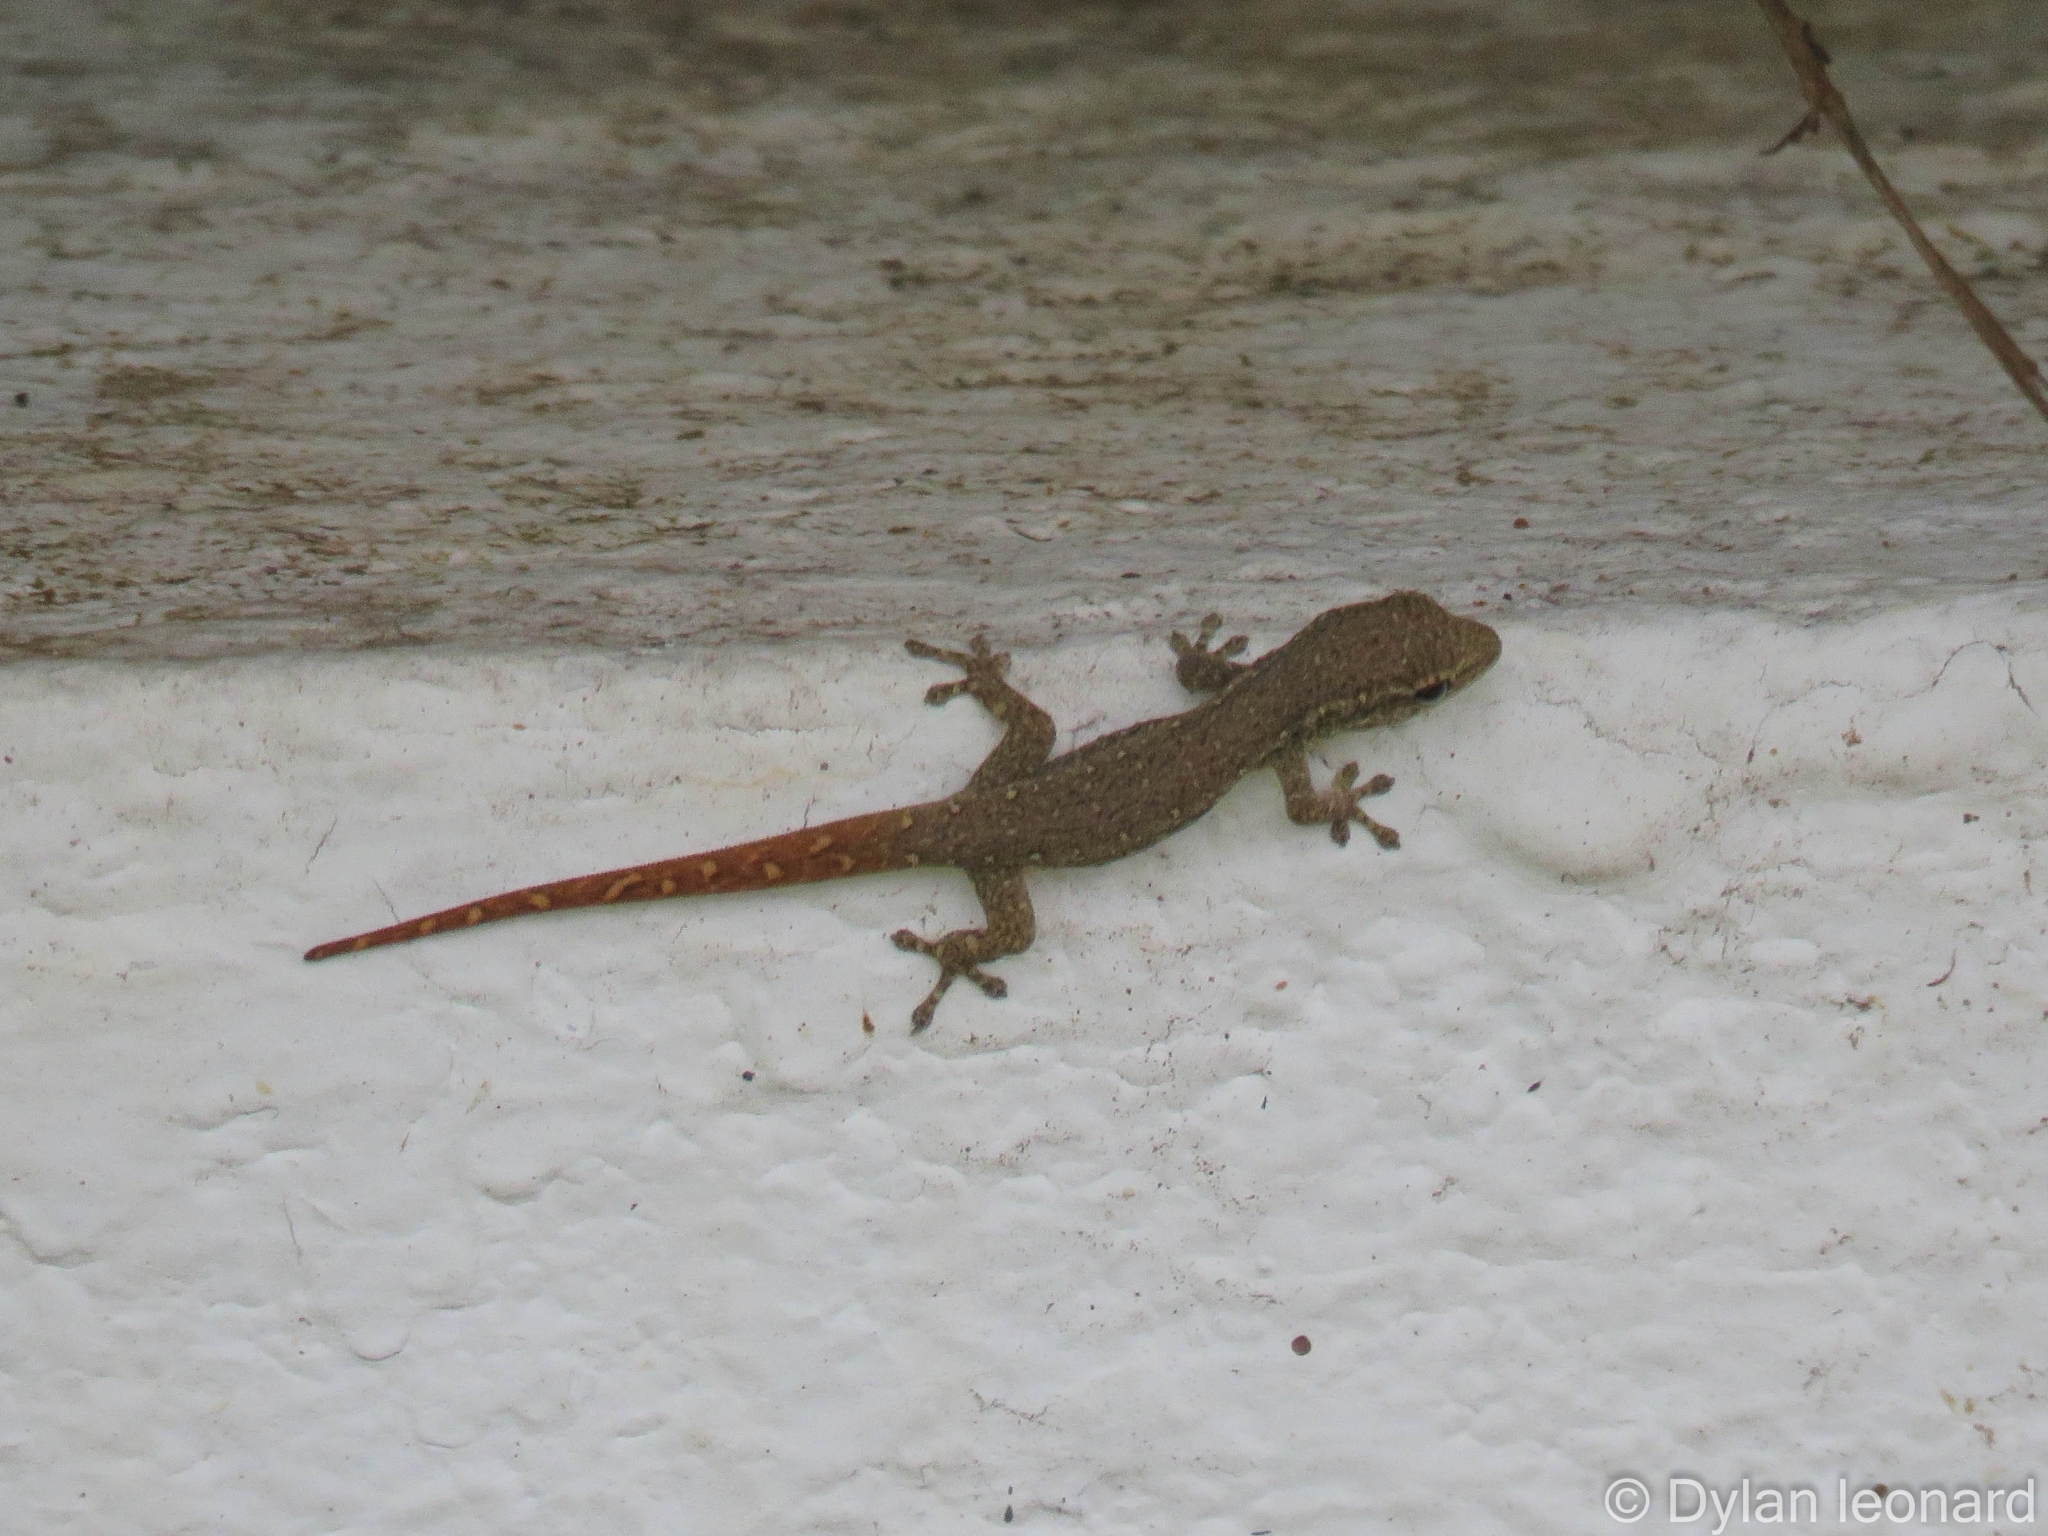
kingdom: Animalia
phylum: Chordata
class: Squamata
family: Gekkonidae
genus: Lygodactylus
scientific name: Lygodactylus capensis
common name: Cape dwarf gecko
